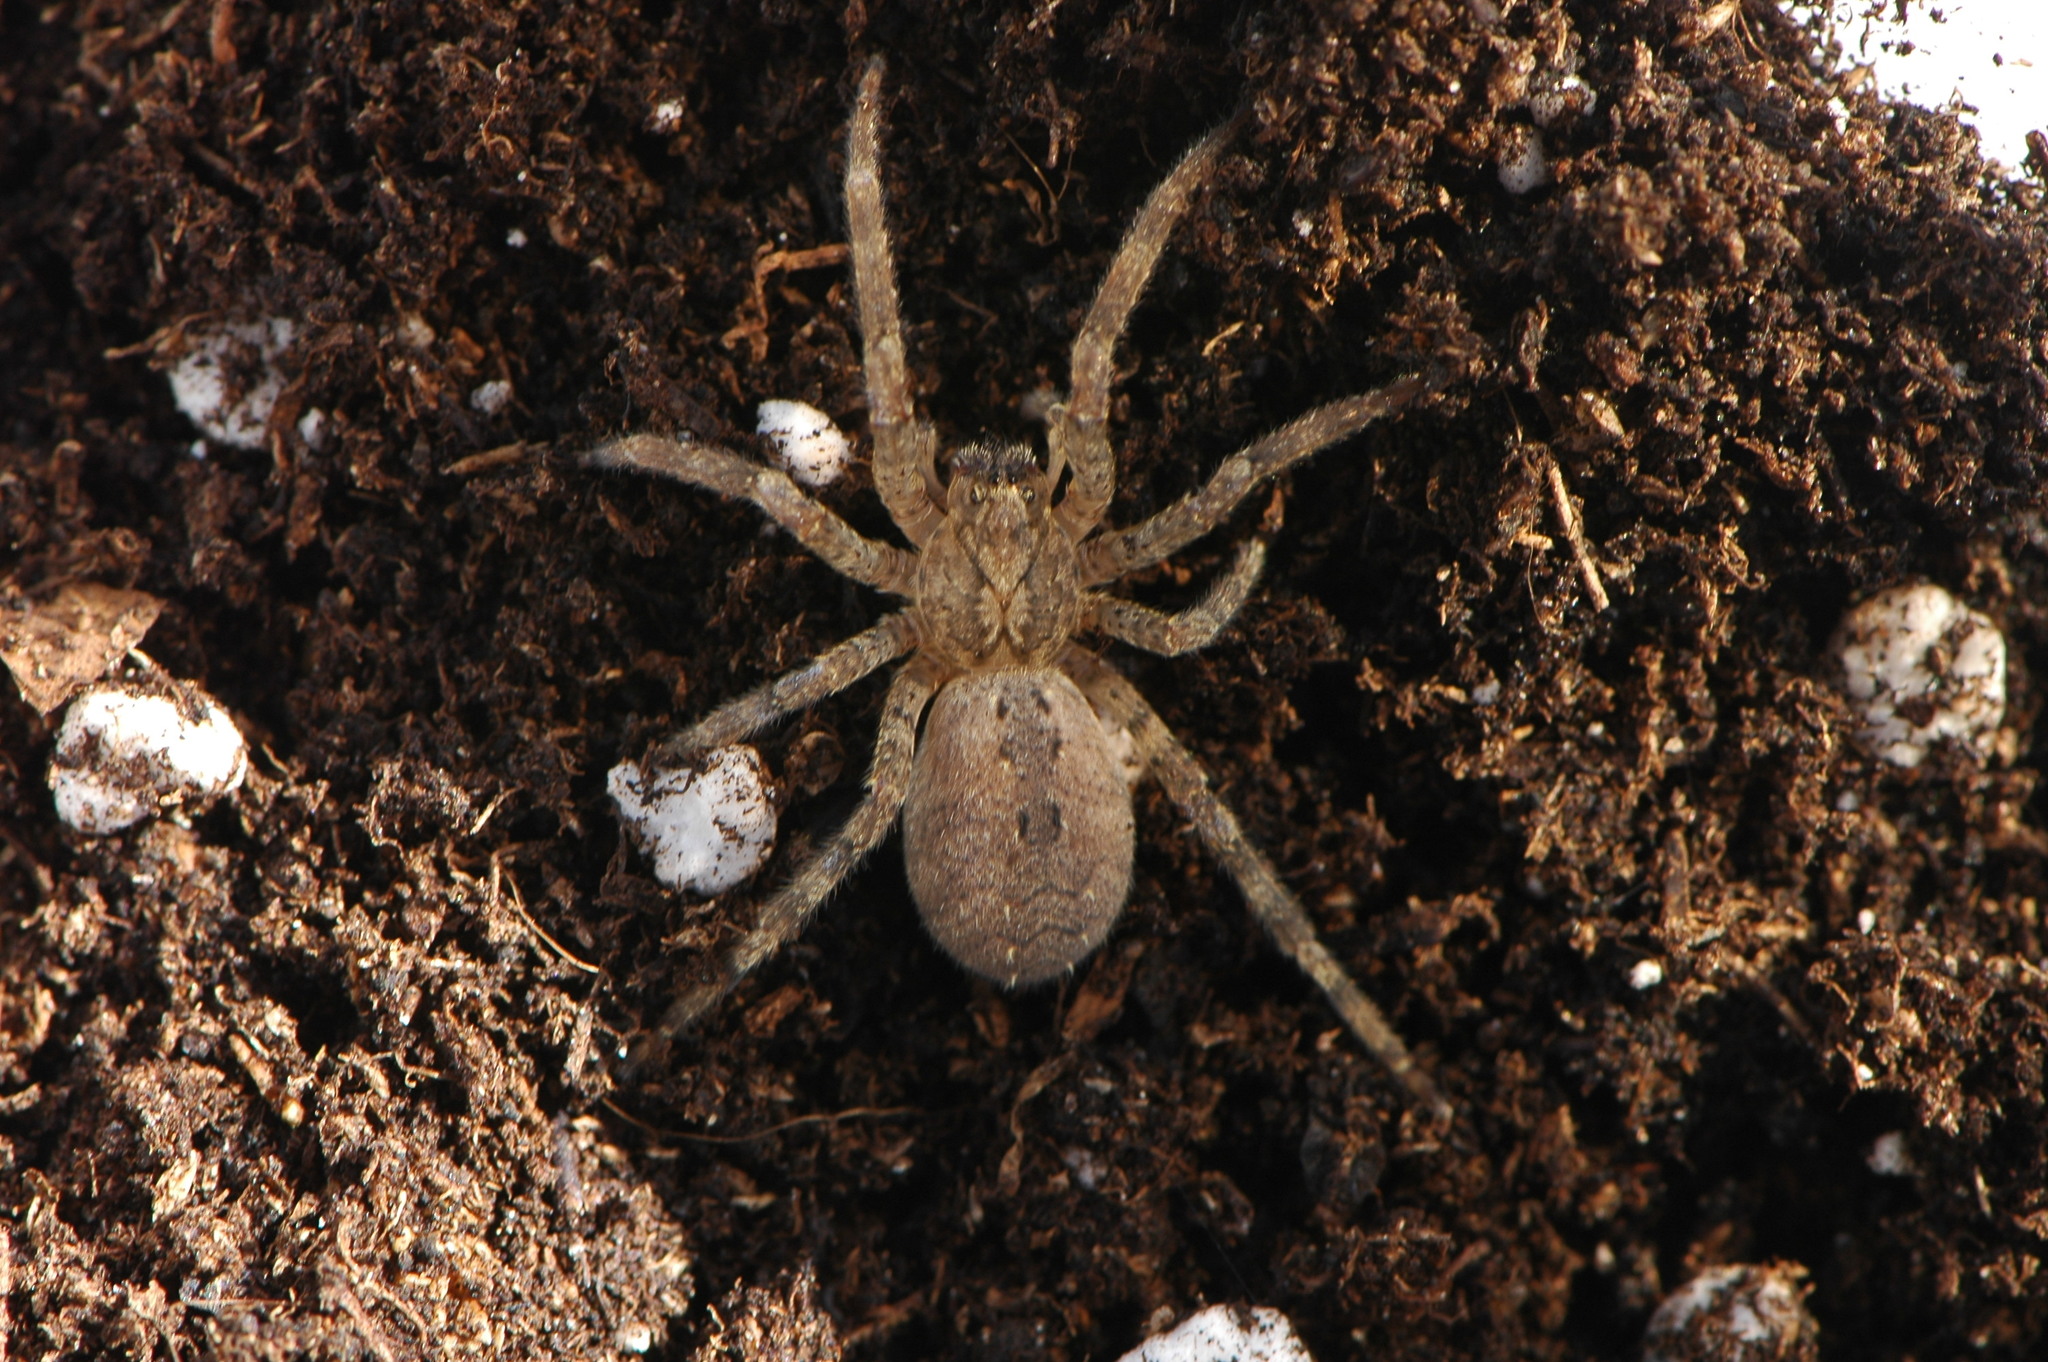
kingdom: Animalia
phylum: Arthropoda
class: Arachnida
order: Araneae
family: Zoropsidae
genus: Zoropsis
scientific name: Zoropsis spinimana
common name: Zoropsid spider
